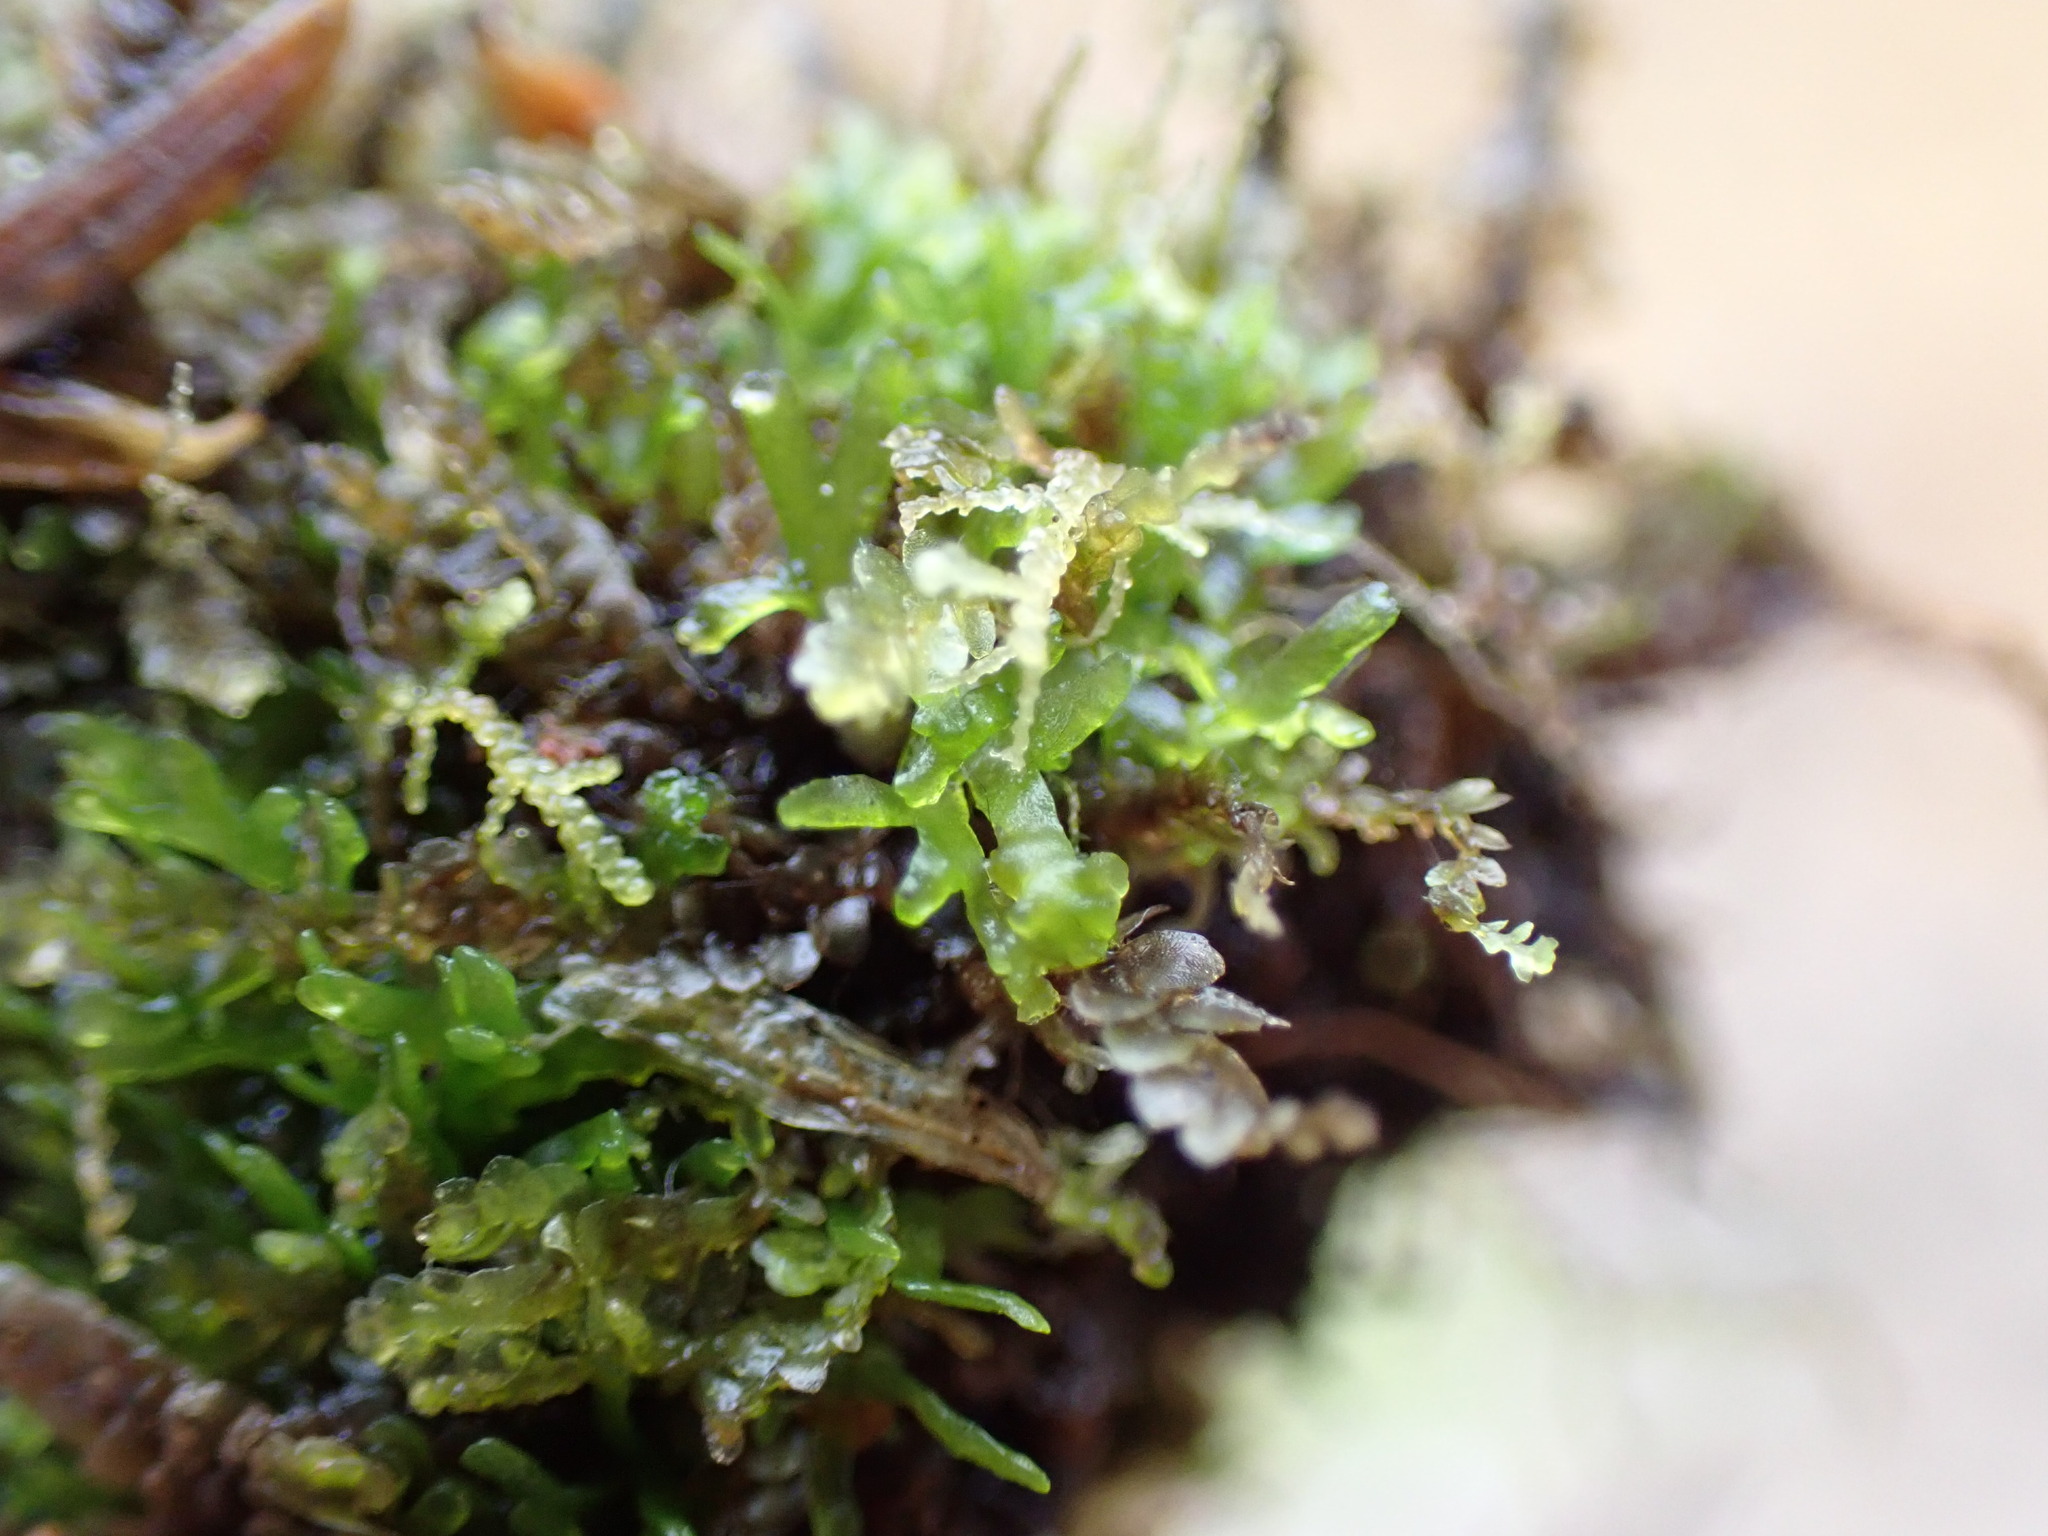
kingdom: Plantae
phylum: Marchantiophyta
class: Jungermanniopsida
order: Metzgeriales
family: Aneuraceae
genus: Riccardia
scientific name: Riccardia chamedryfolia
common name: Jagged germanderwort
